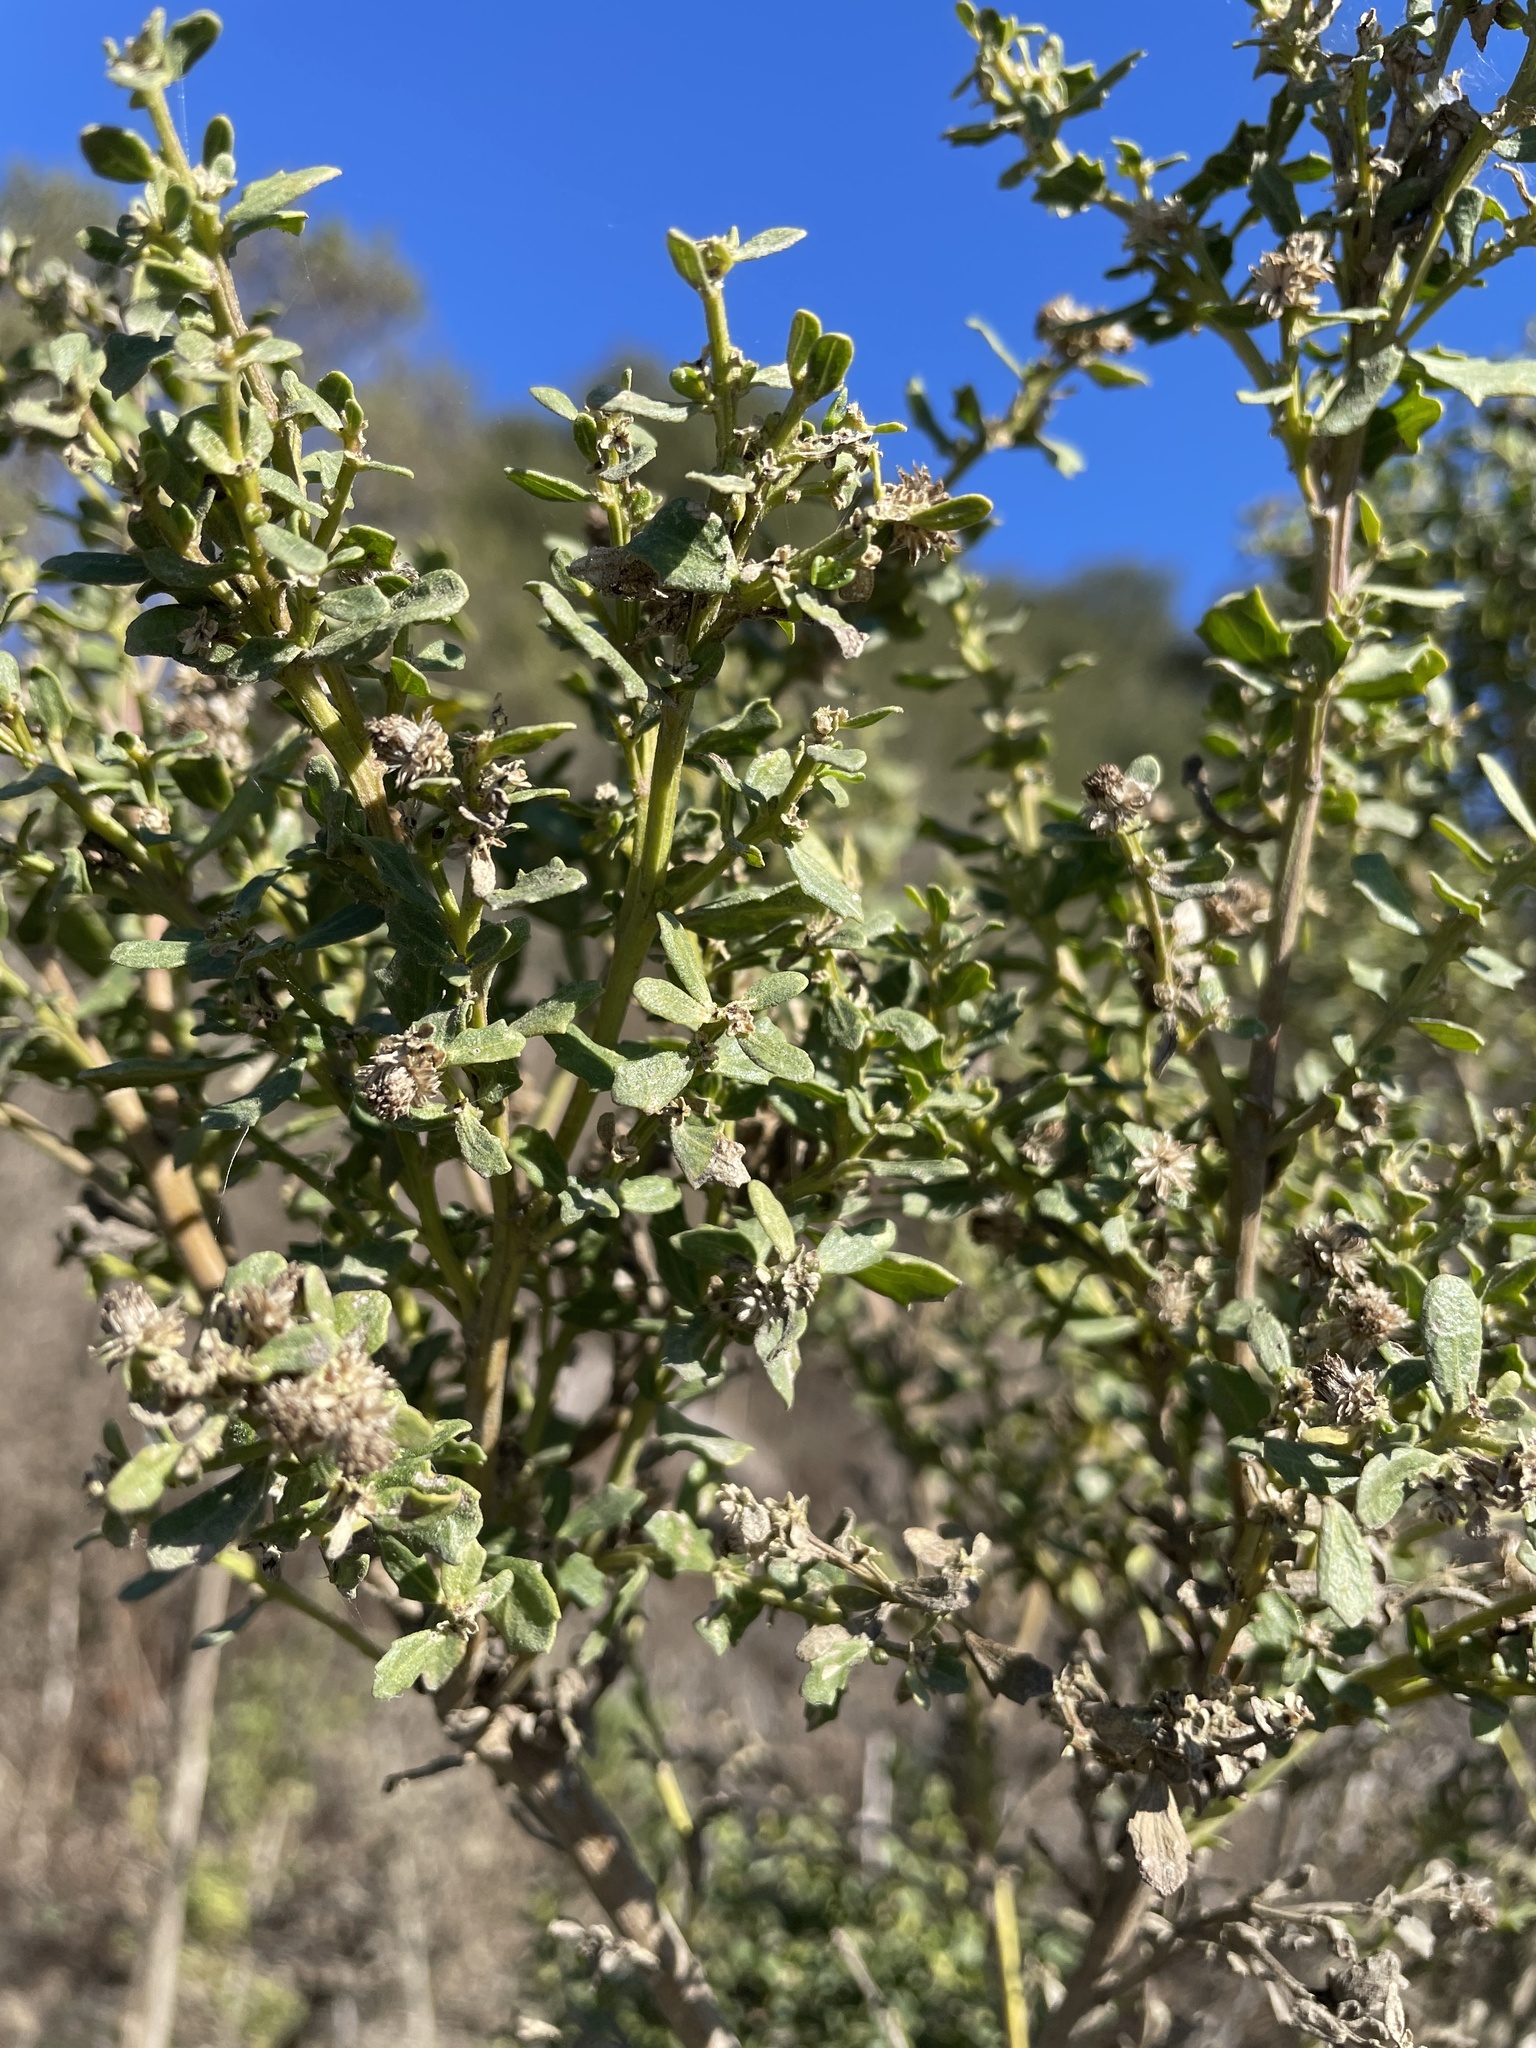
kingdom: Plantae
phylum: Tracheophyta
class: Magnoliopsida
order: Asterales
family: Asteraceae
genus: Baccharis
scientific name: Baccharis pilularis
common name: Coyotebrush
